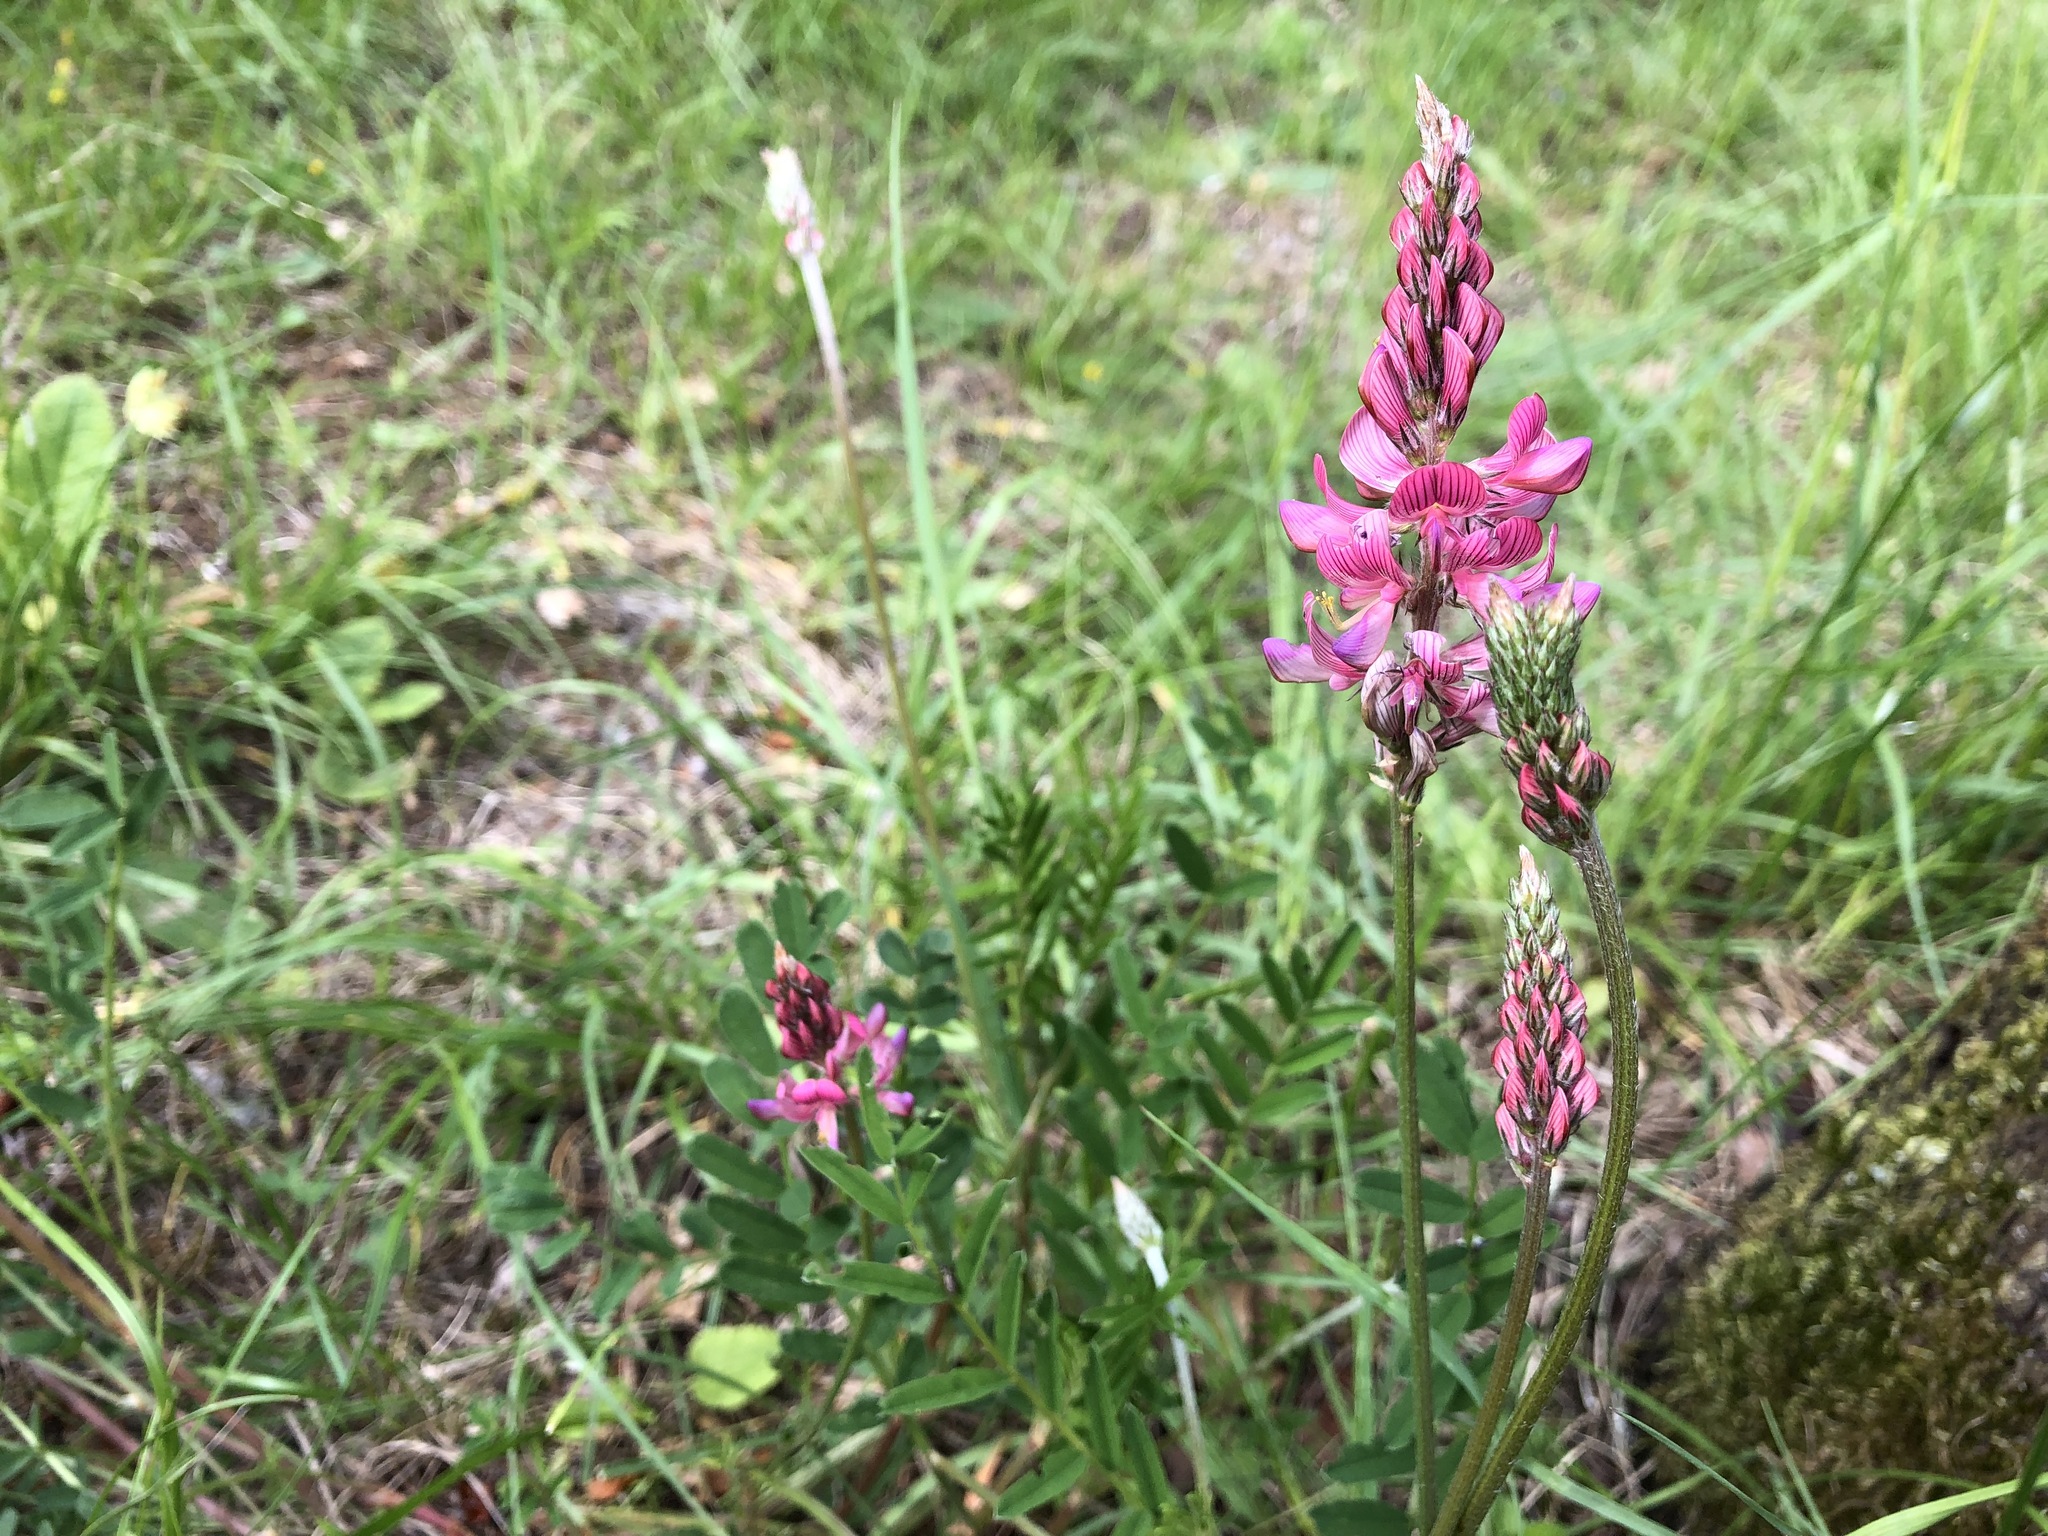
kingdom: Plantae
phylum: Tracheophyta
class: Magnoliopsida
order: Fabales
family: Fabaceae
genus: Onobrychis
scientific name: Onobrychis viciifolia
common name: Sainfoin
